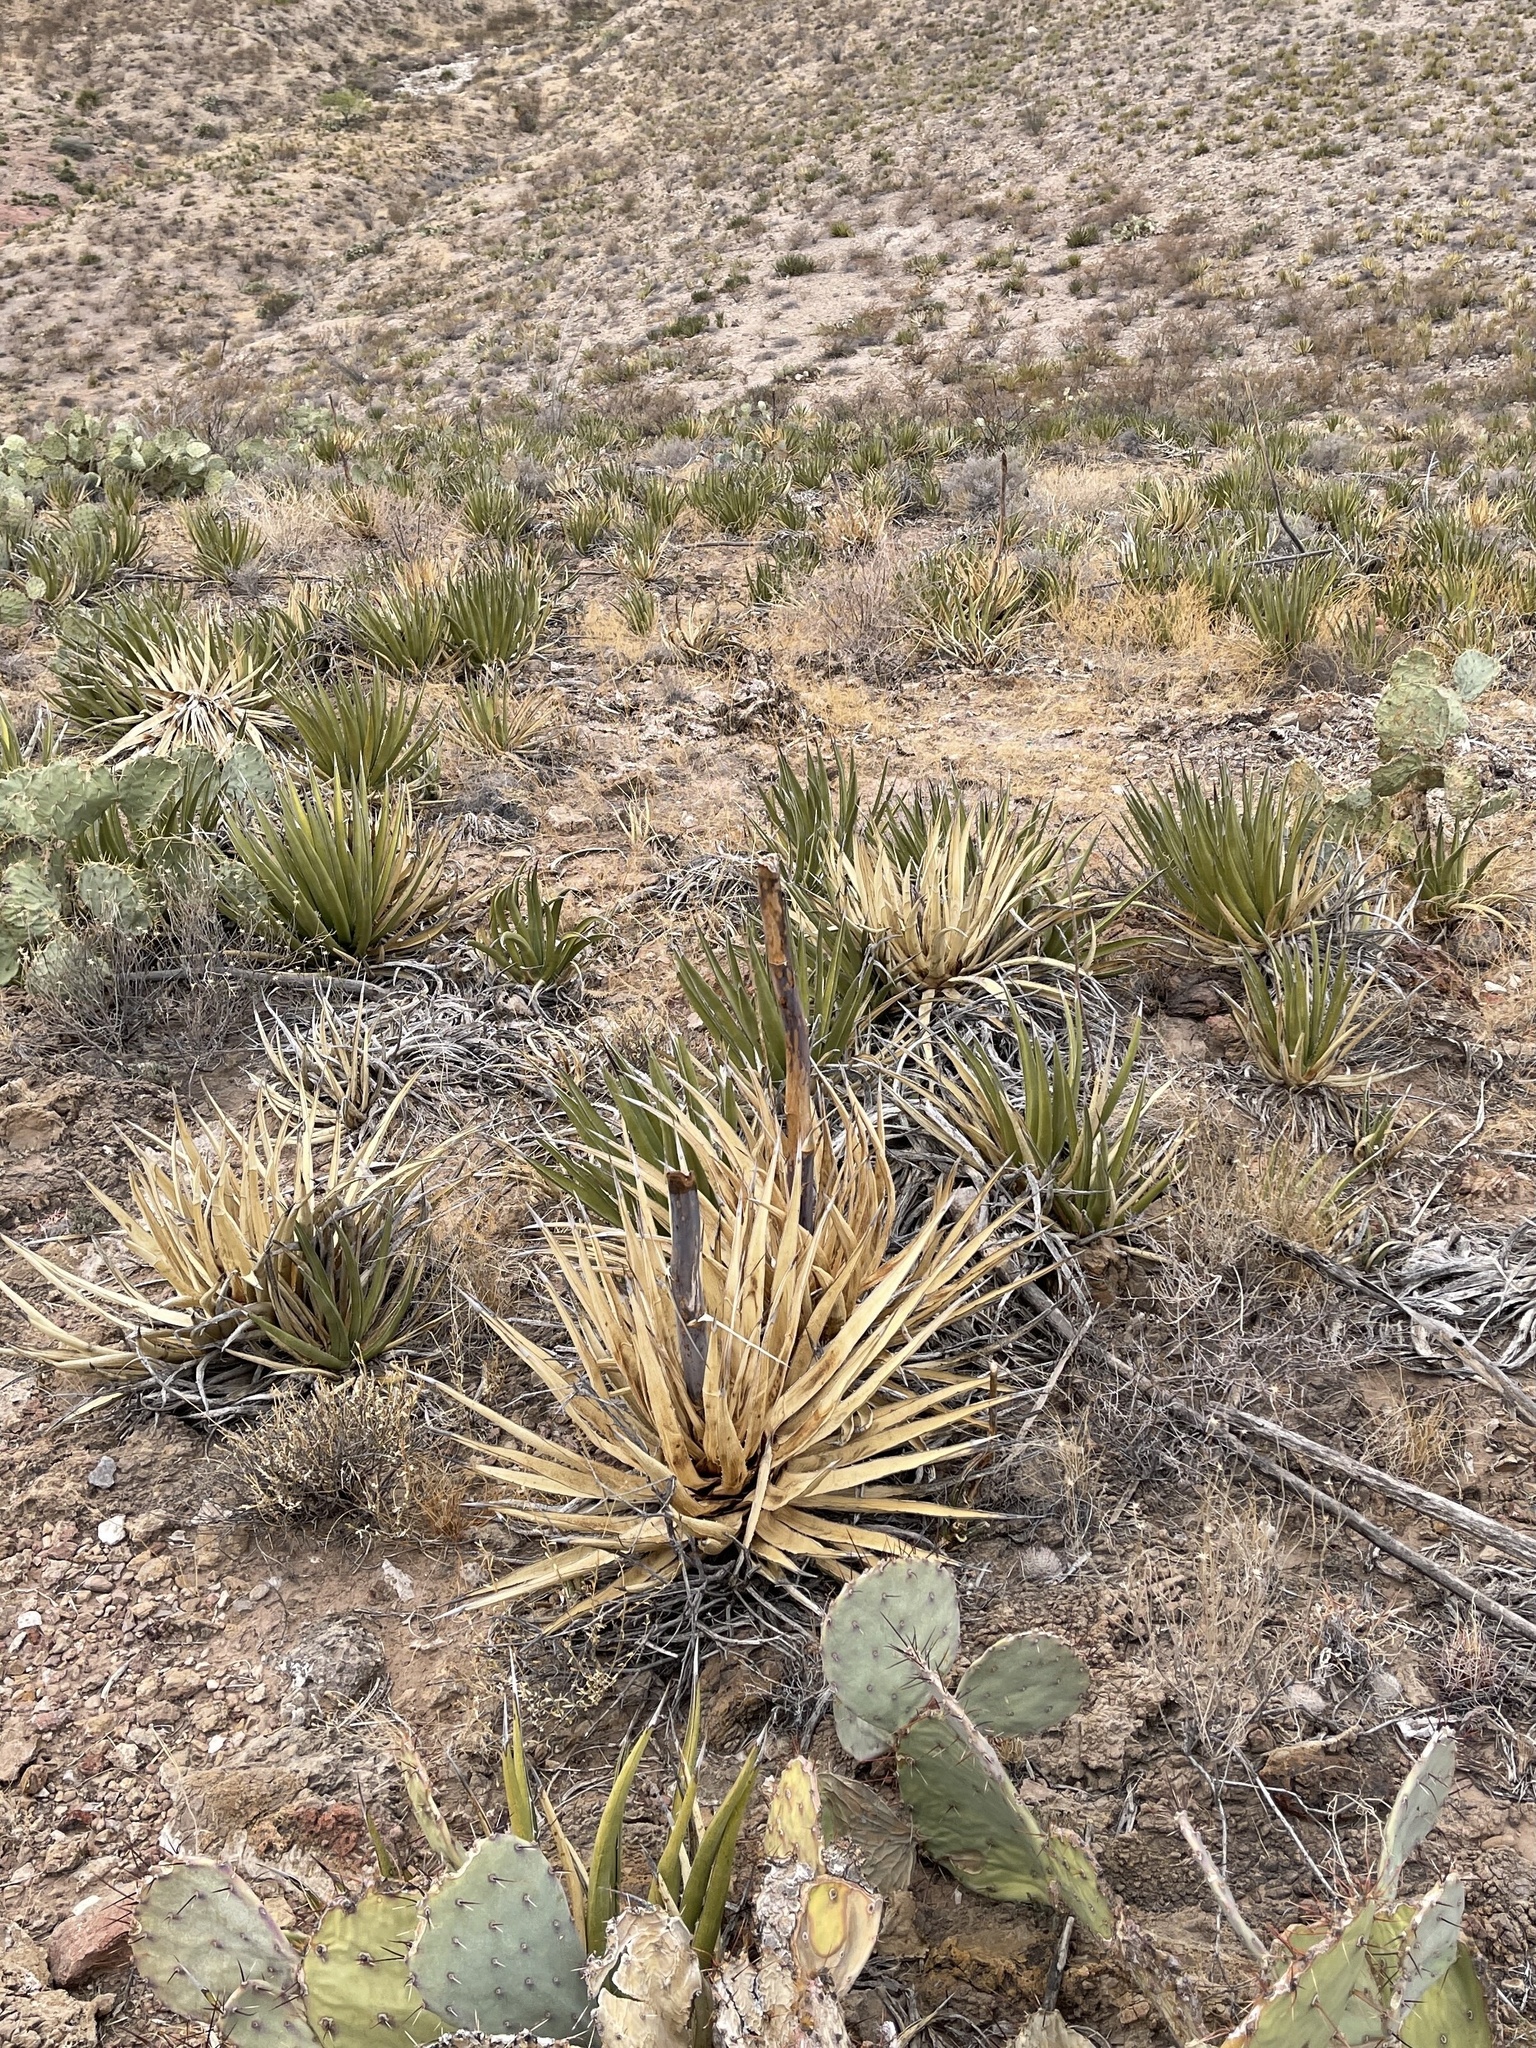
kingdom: Plantae
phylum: Tracheophyta
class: Liliopsida
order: Asparagales
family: Asparagaceae
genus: Agave
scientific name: Agave lechuguilla
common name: Lecheguilla agave
